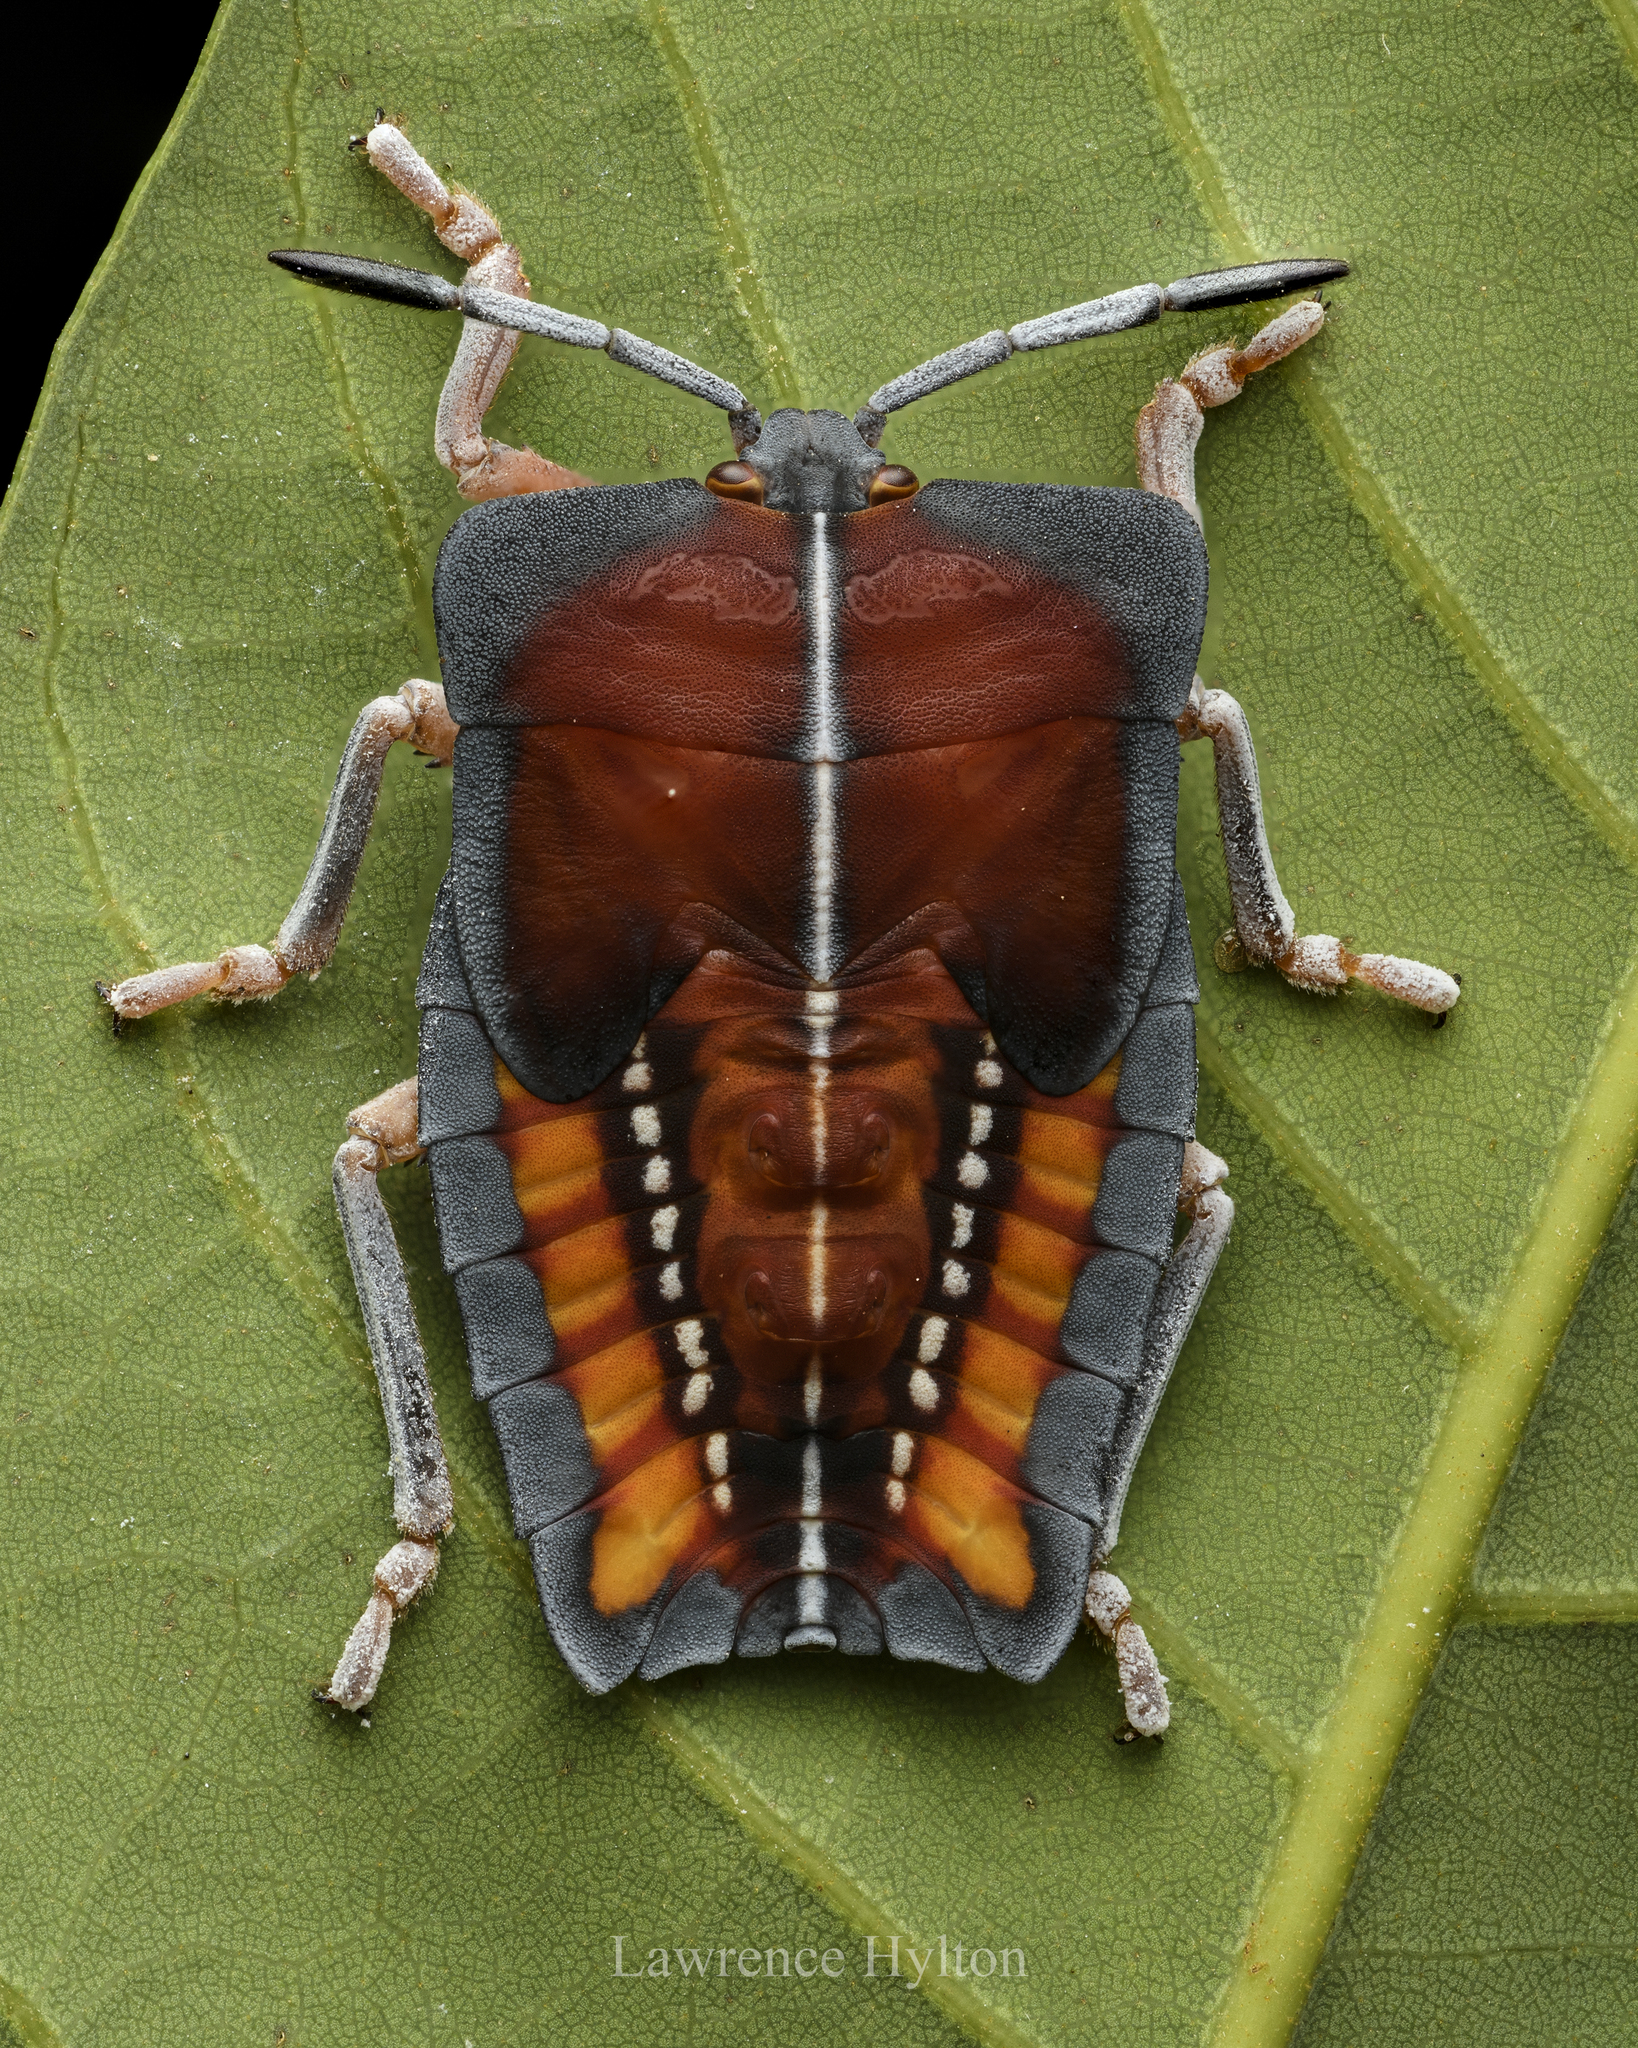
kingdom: Animalia
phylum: Arthropoda
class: Insecta
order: Hemiptera
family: Tessaratomidae
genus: Tessaratoma
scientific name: Tessaratoma papillosa
